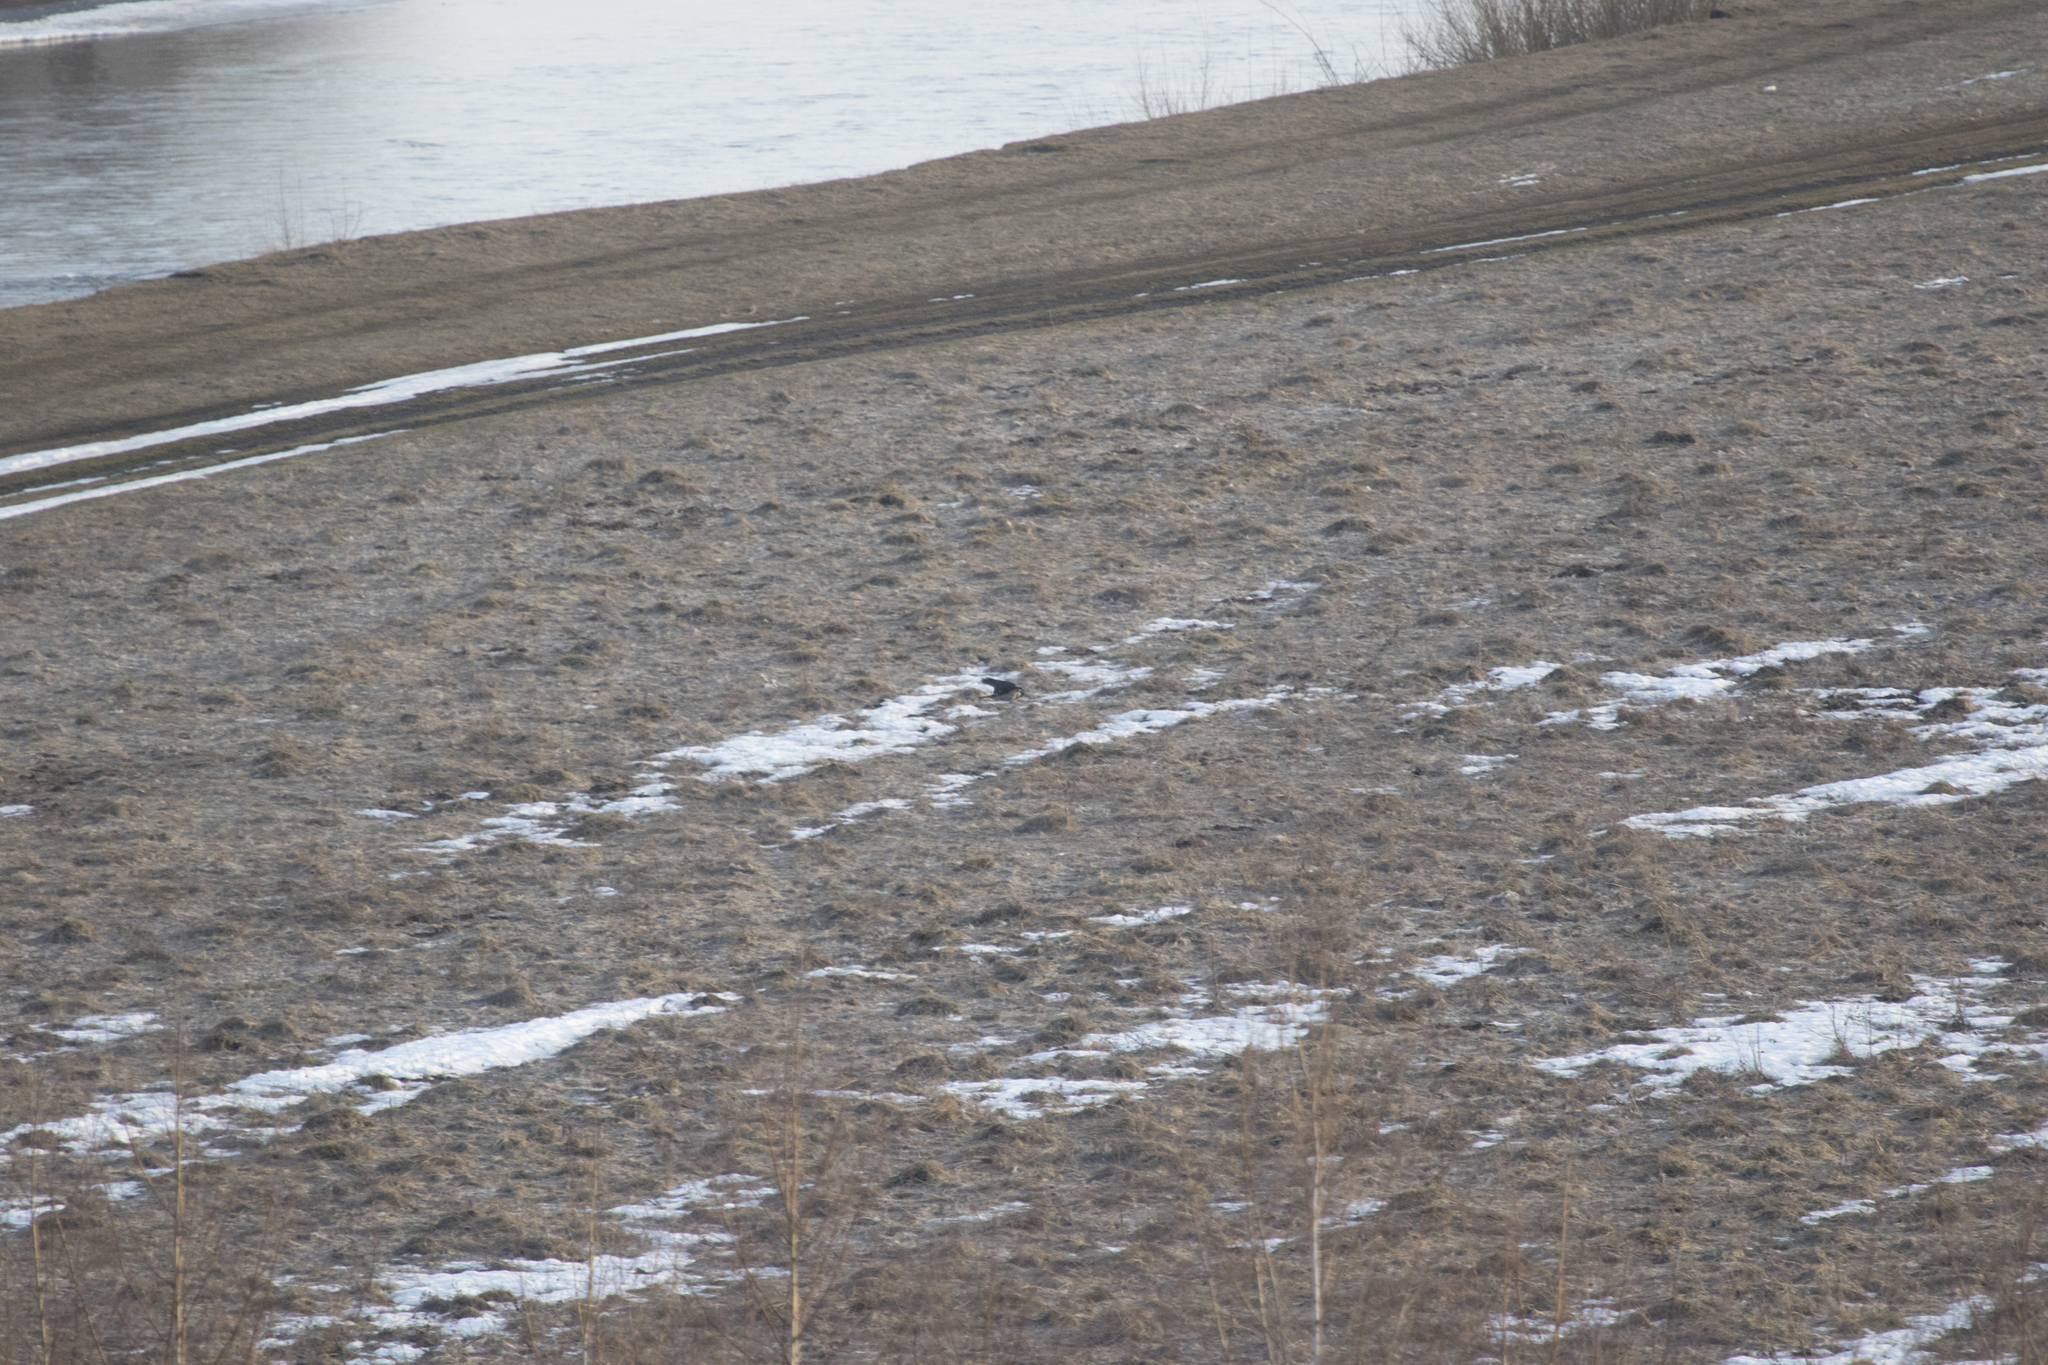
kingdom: Animalia
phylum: Chordata
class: Aves
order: Passeriformes
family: Corvidae
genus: Corvus
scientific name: Corvus cornix
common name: Hooded crow
